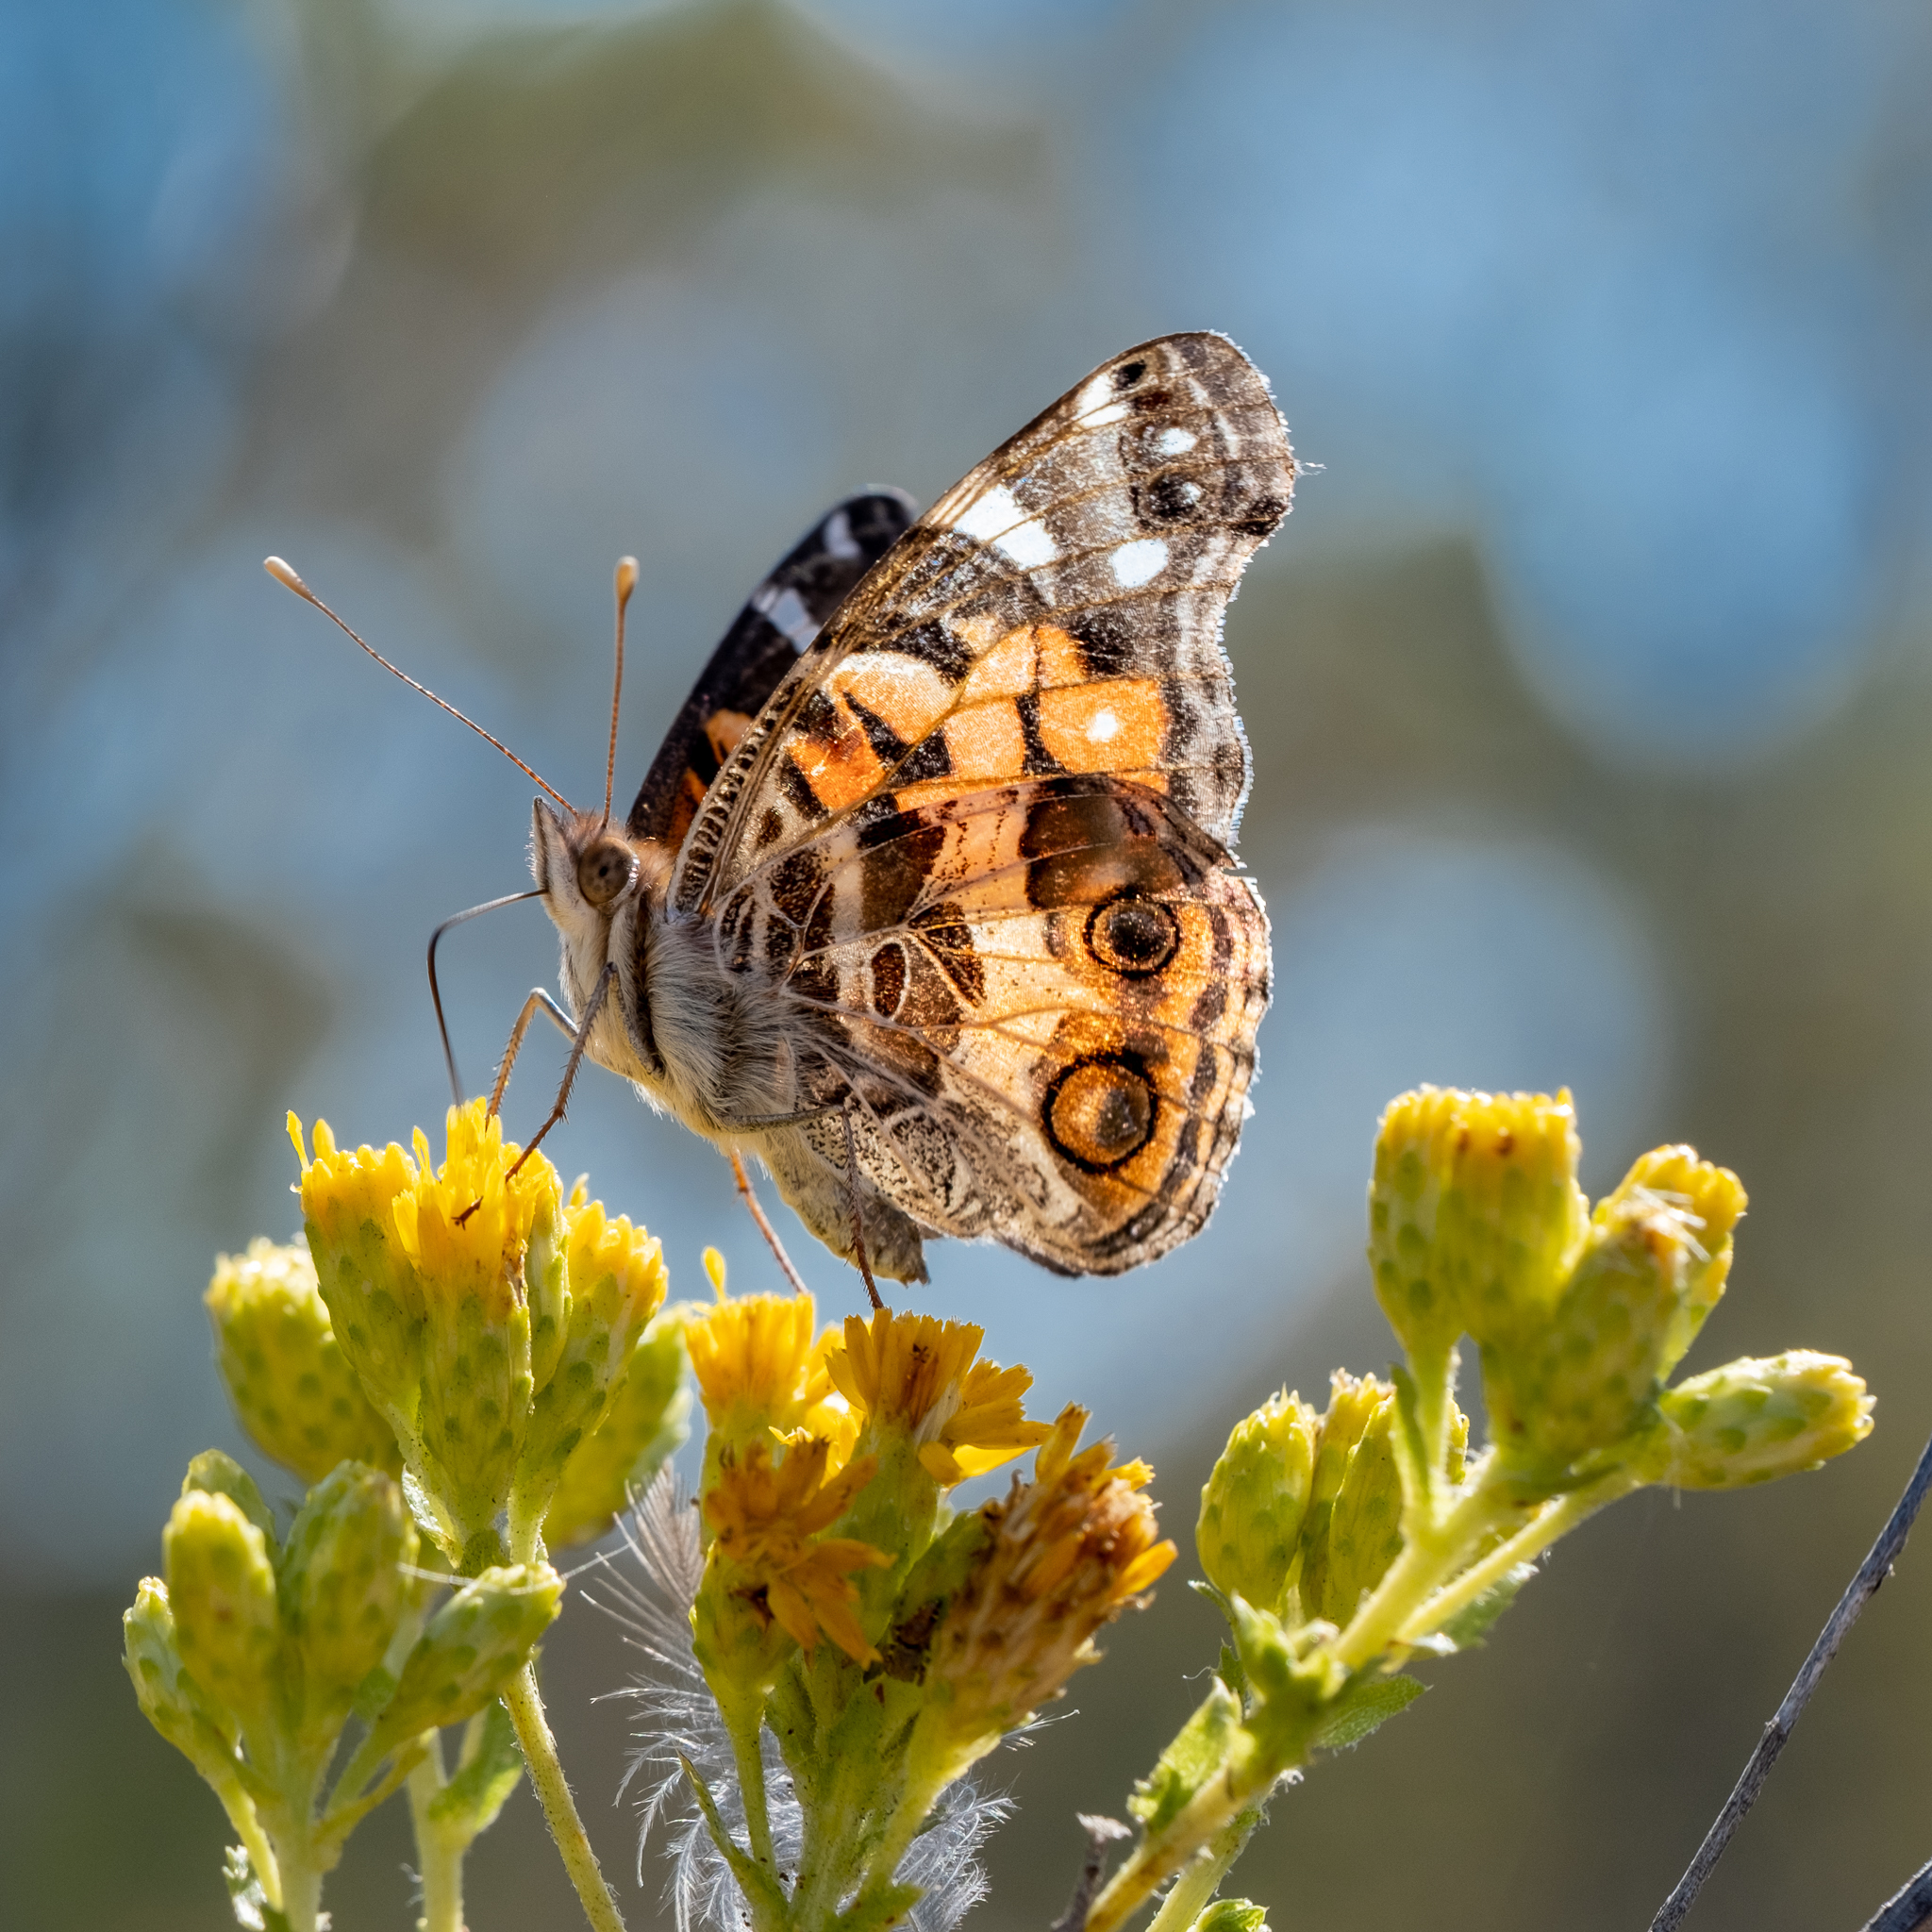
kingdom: Animalia
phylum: Arthropoda
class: Insecta
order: Lepidoptera
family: Nymphalidae
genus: Vanessa
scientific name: Vanessa virginiensis
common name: American lady
